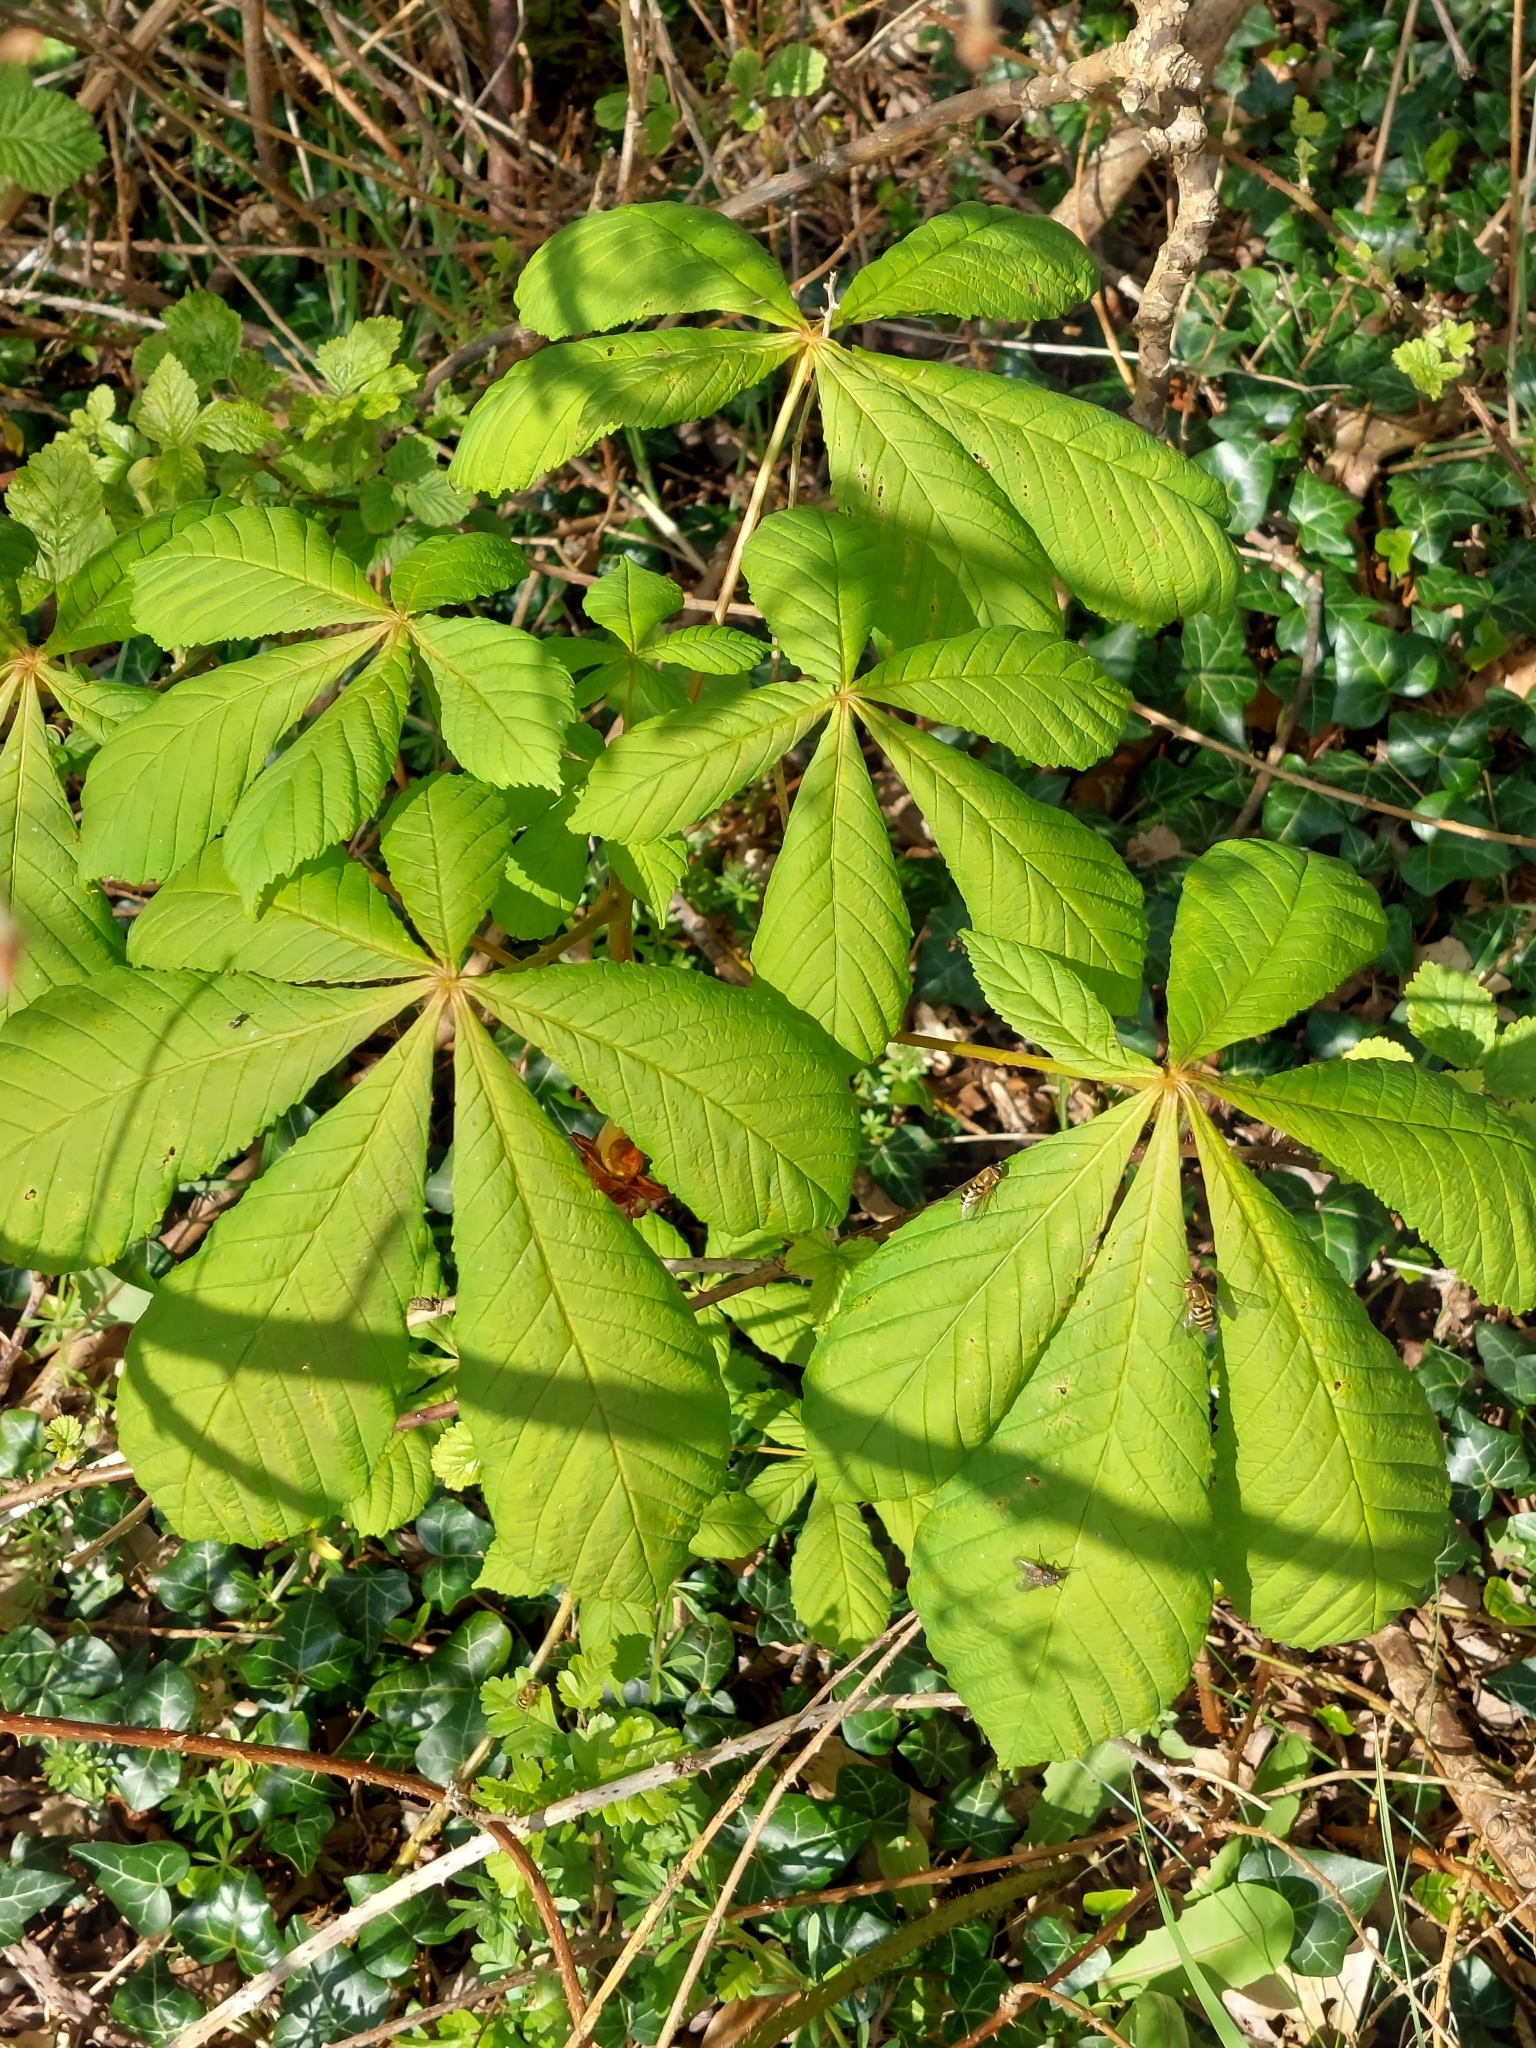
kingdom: Plantae
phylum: Tracheophyta
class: Magnoliopsida
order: Sapindales
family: Sapindaceae
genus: Aesculus
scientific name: Aesculus hippocastanum
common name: Horse-chestnut
